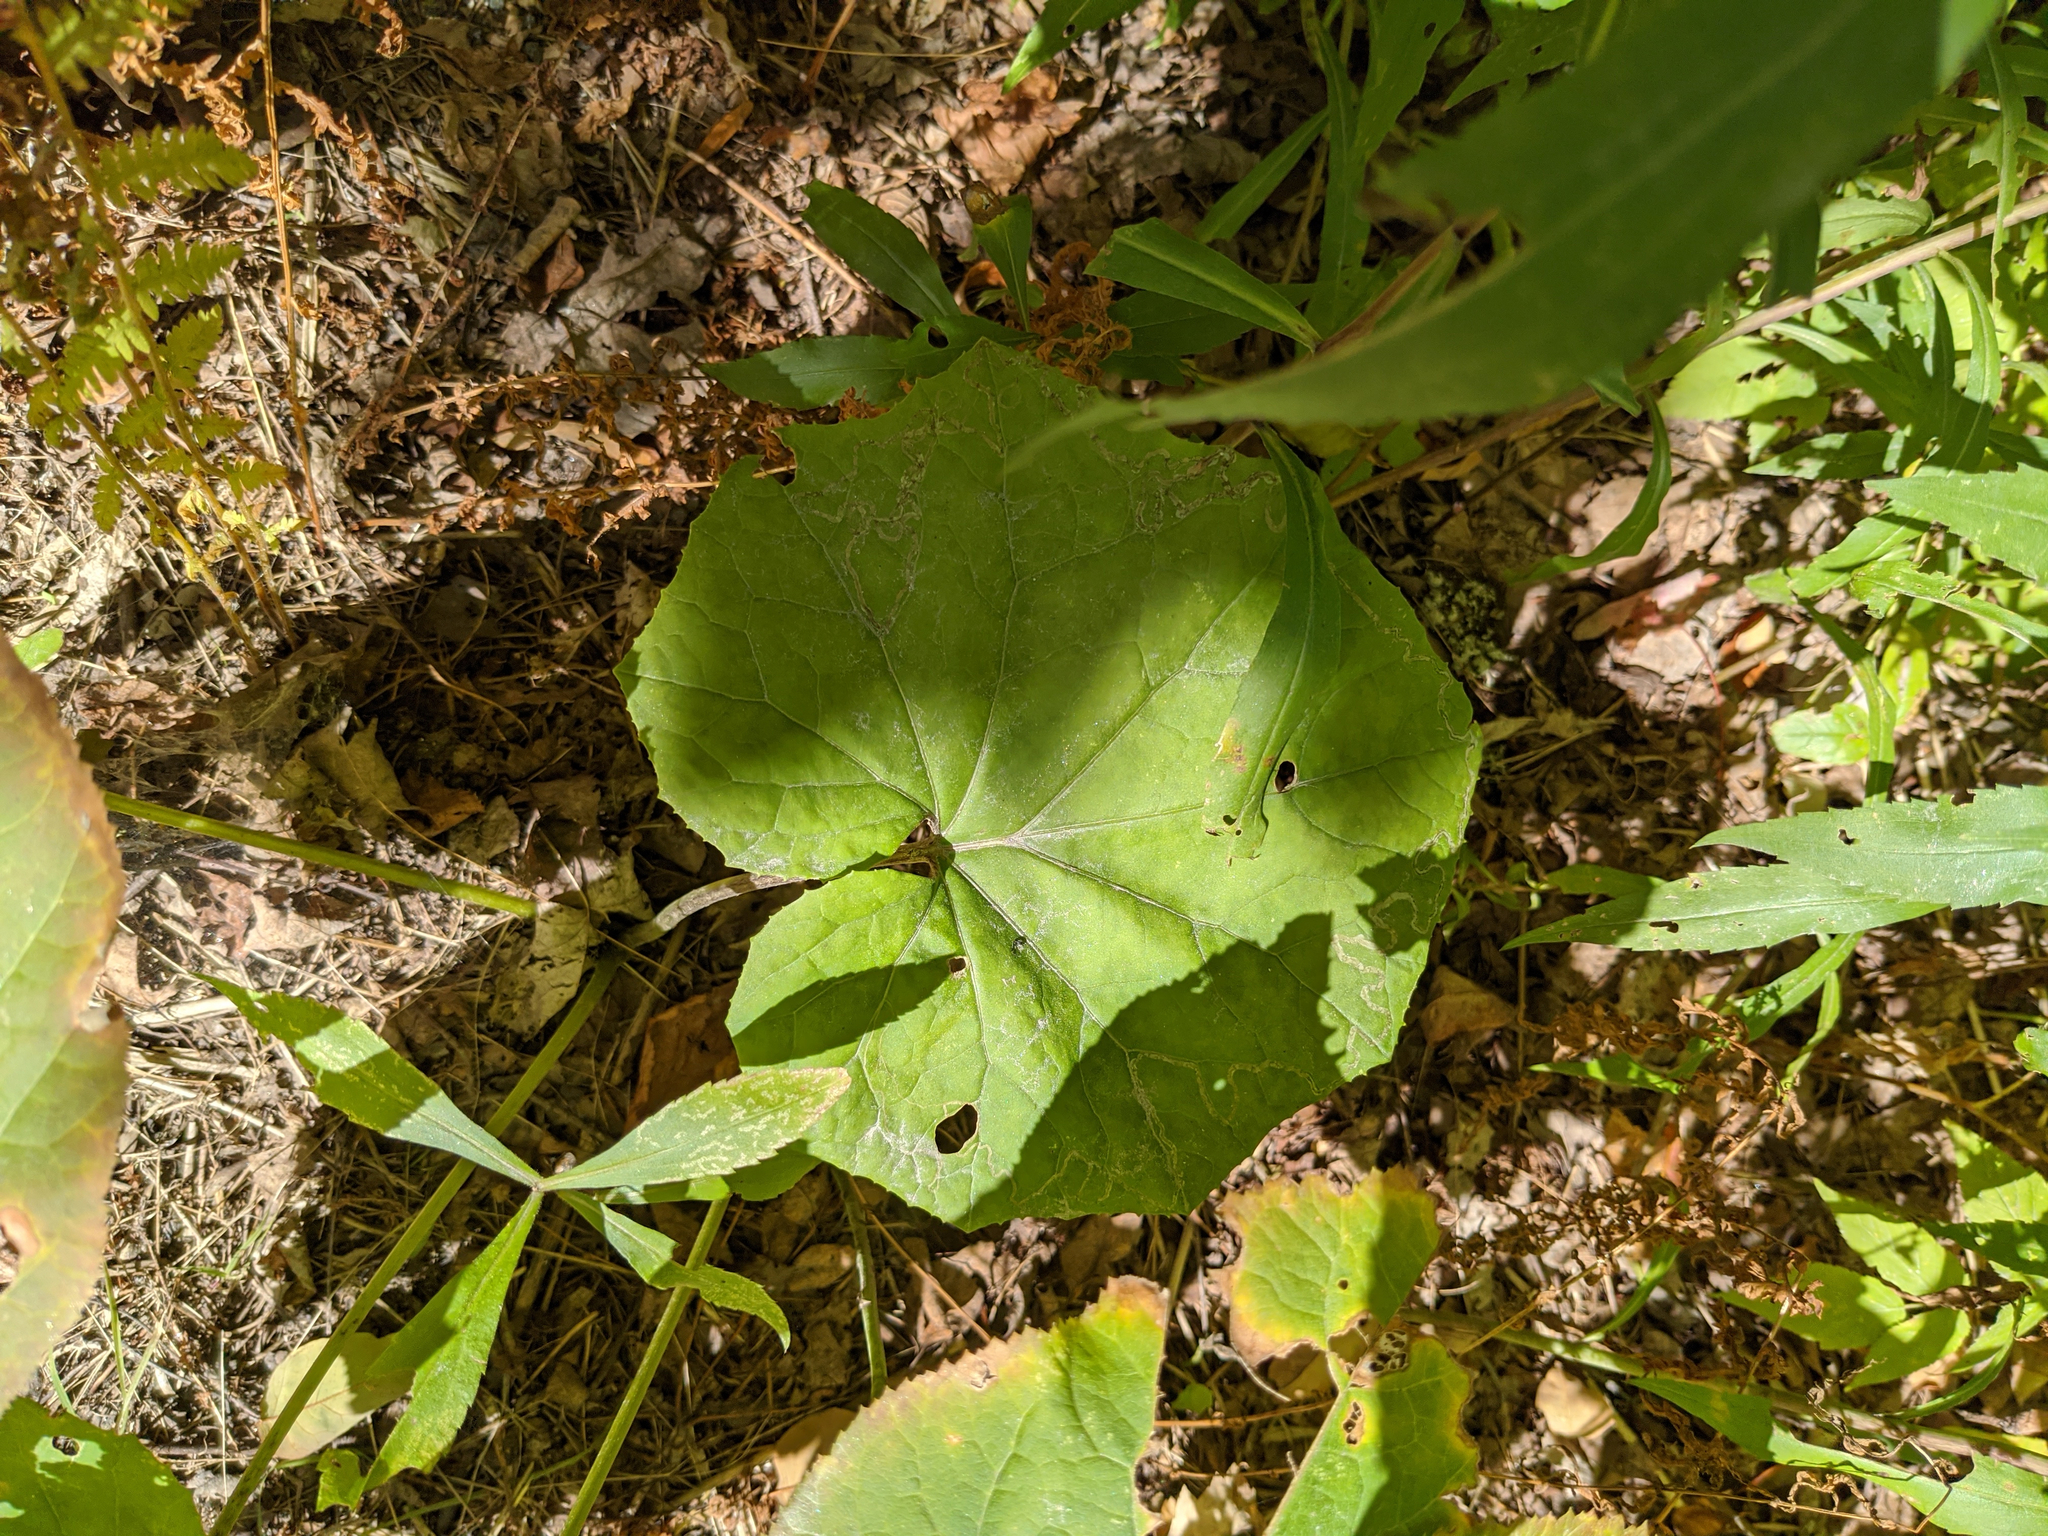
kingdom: Plantae
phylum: Tracheophyta
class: Magnoliopsida
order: Asterales
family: Asteraceae
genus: Tussilago
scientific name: Tussilago farfara
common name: Coltsfoot
